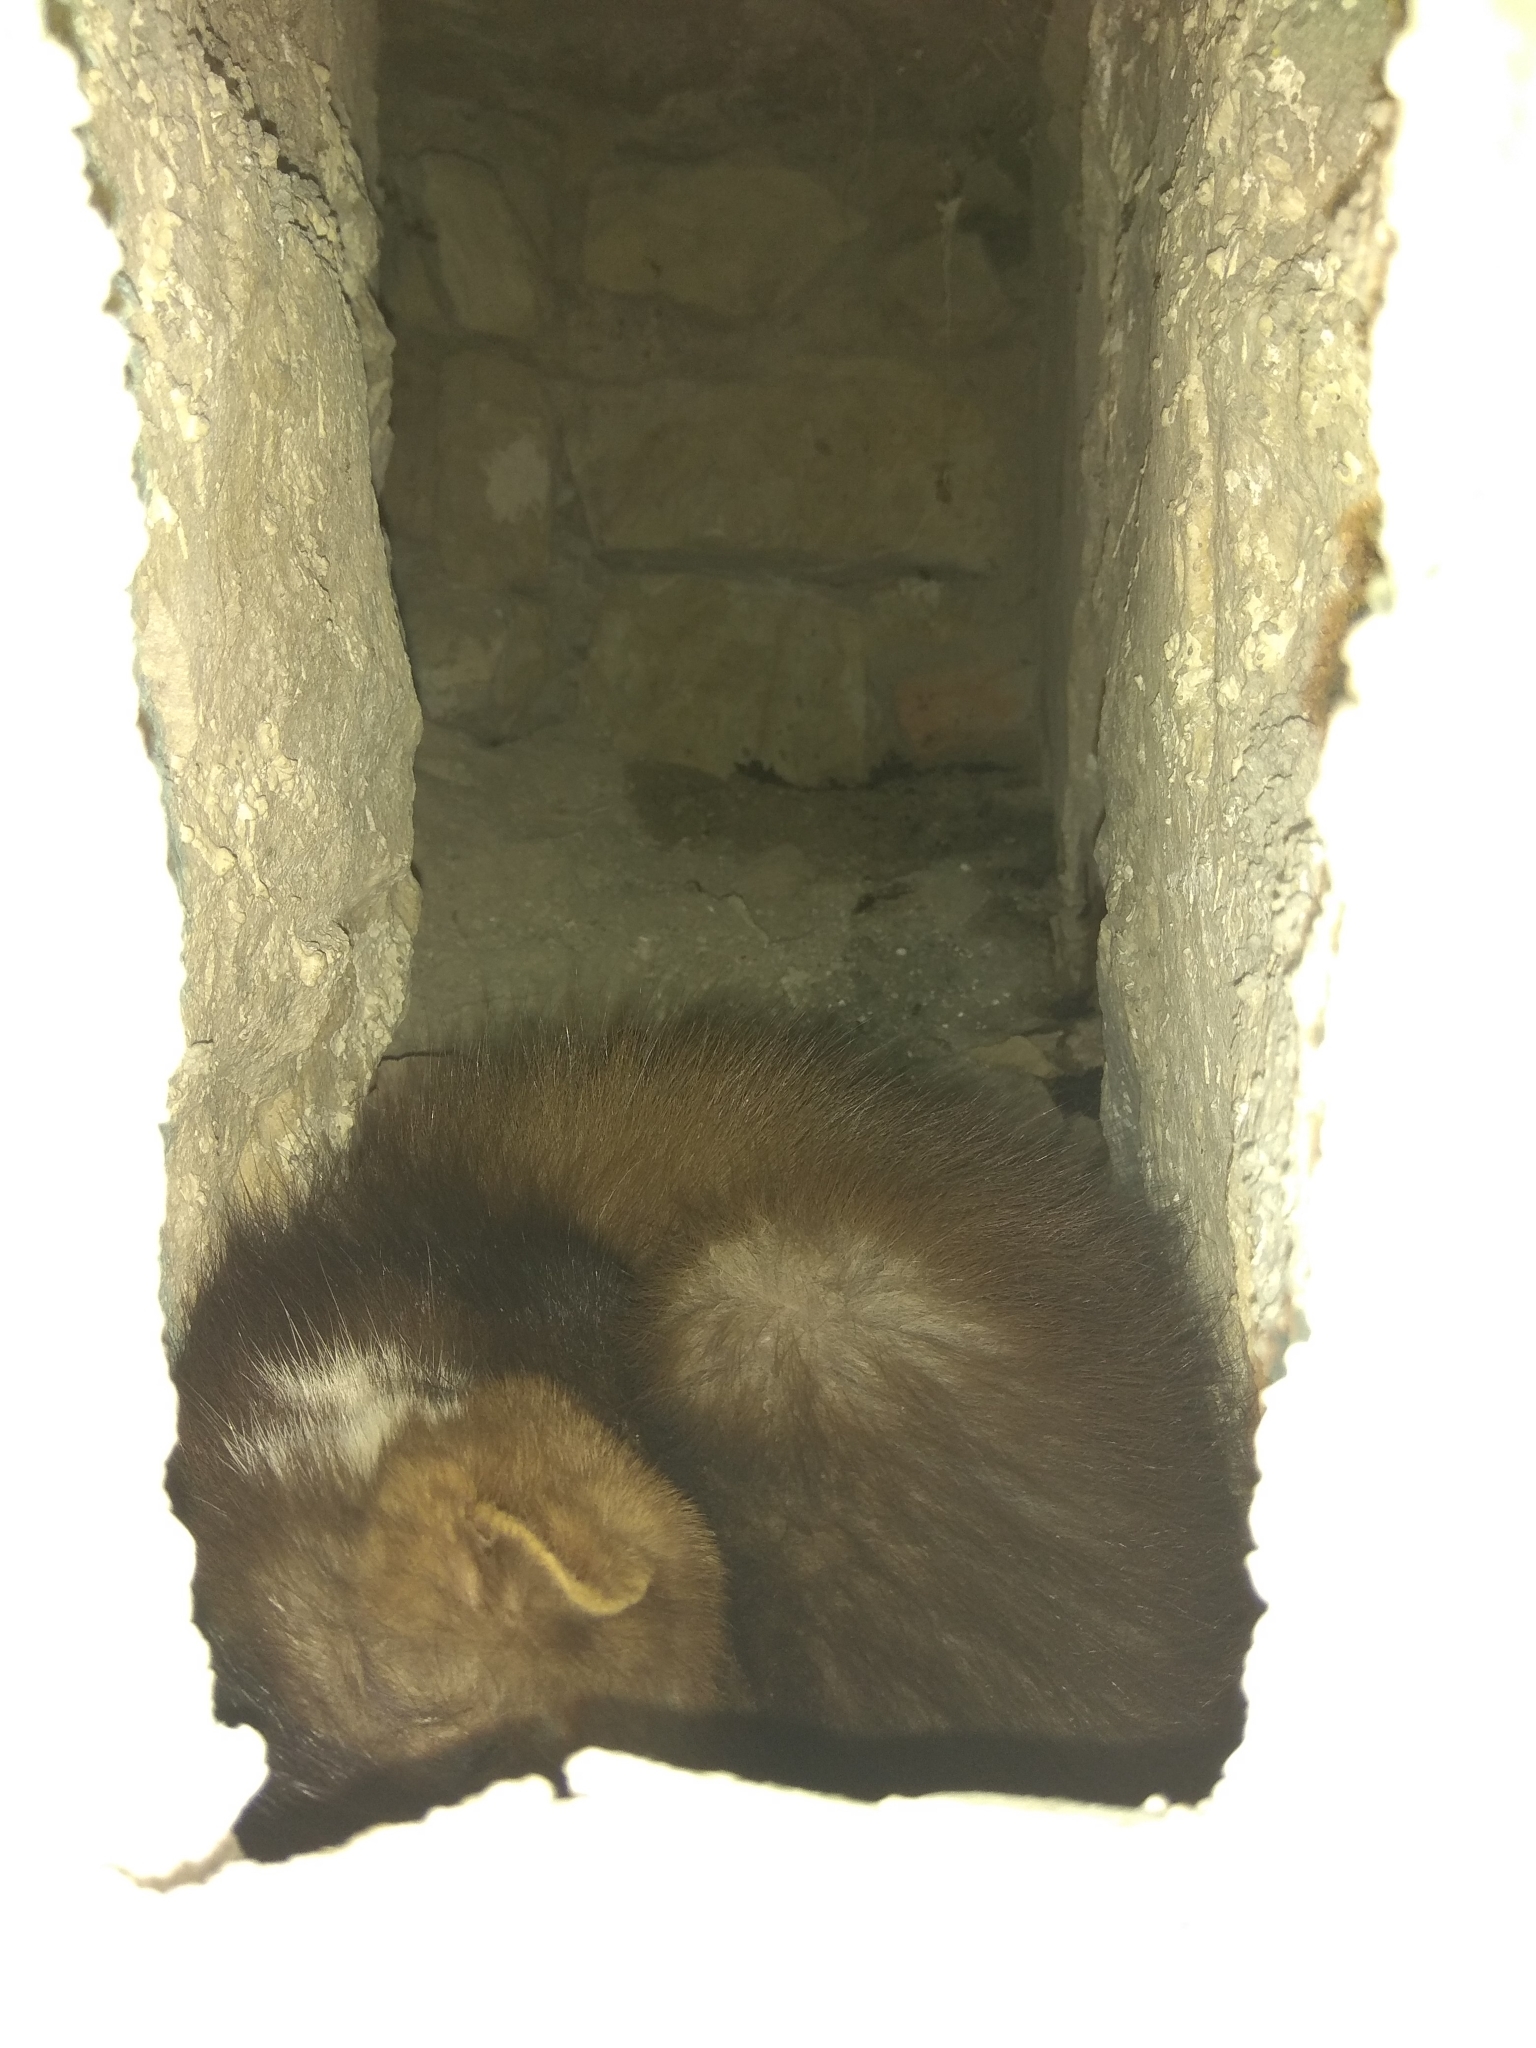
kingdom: Animalia
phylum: Chordata
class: Mammalia
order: Carnivora
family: Mustelidae
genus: Martes
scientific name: Martes foina
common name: Beech marten
